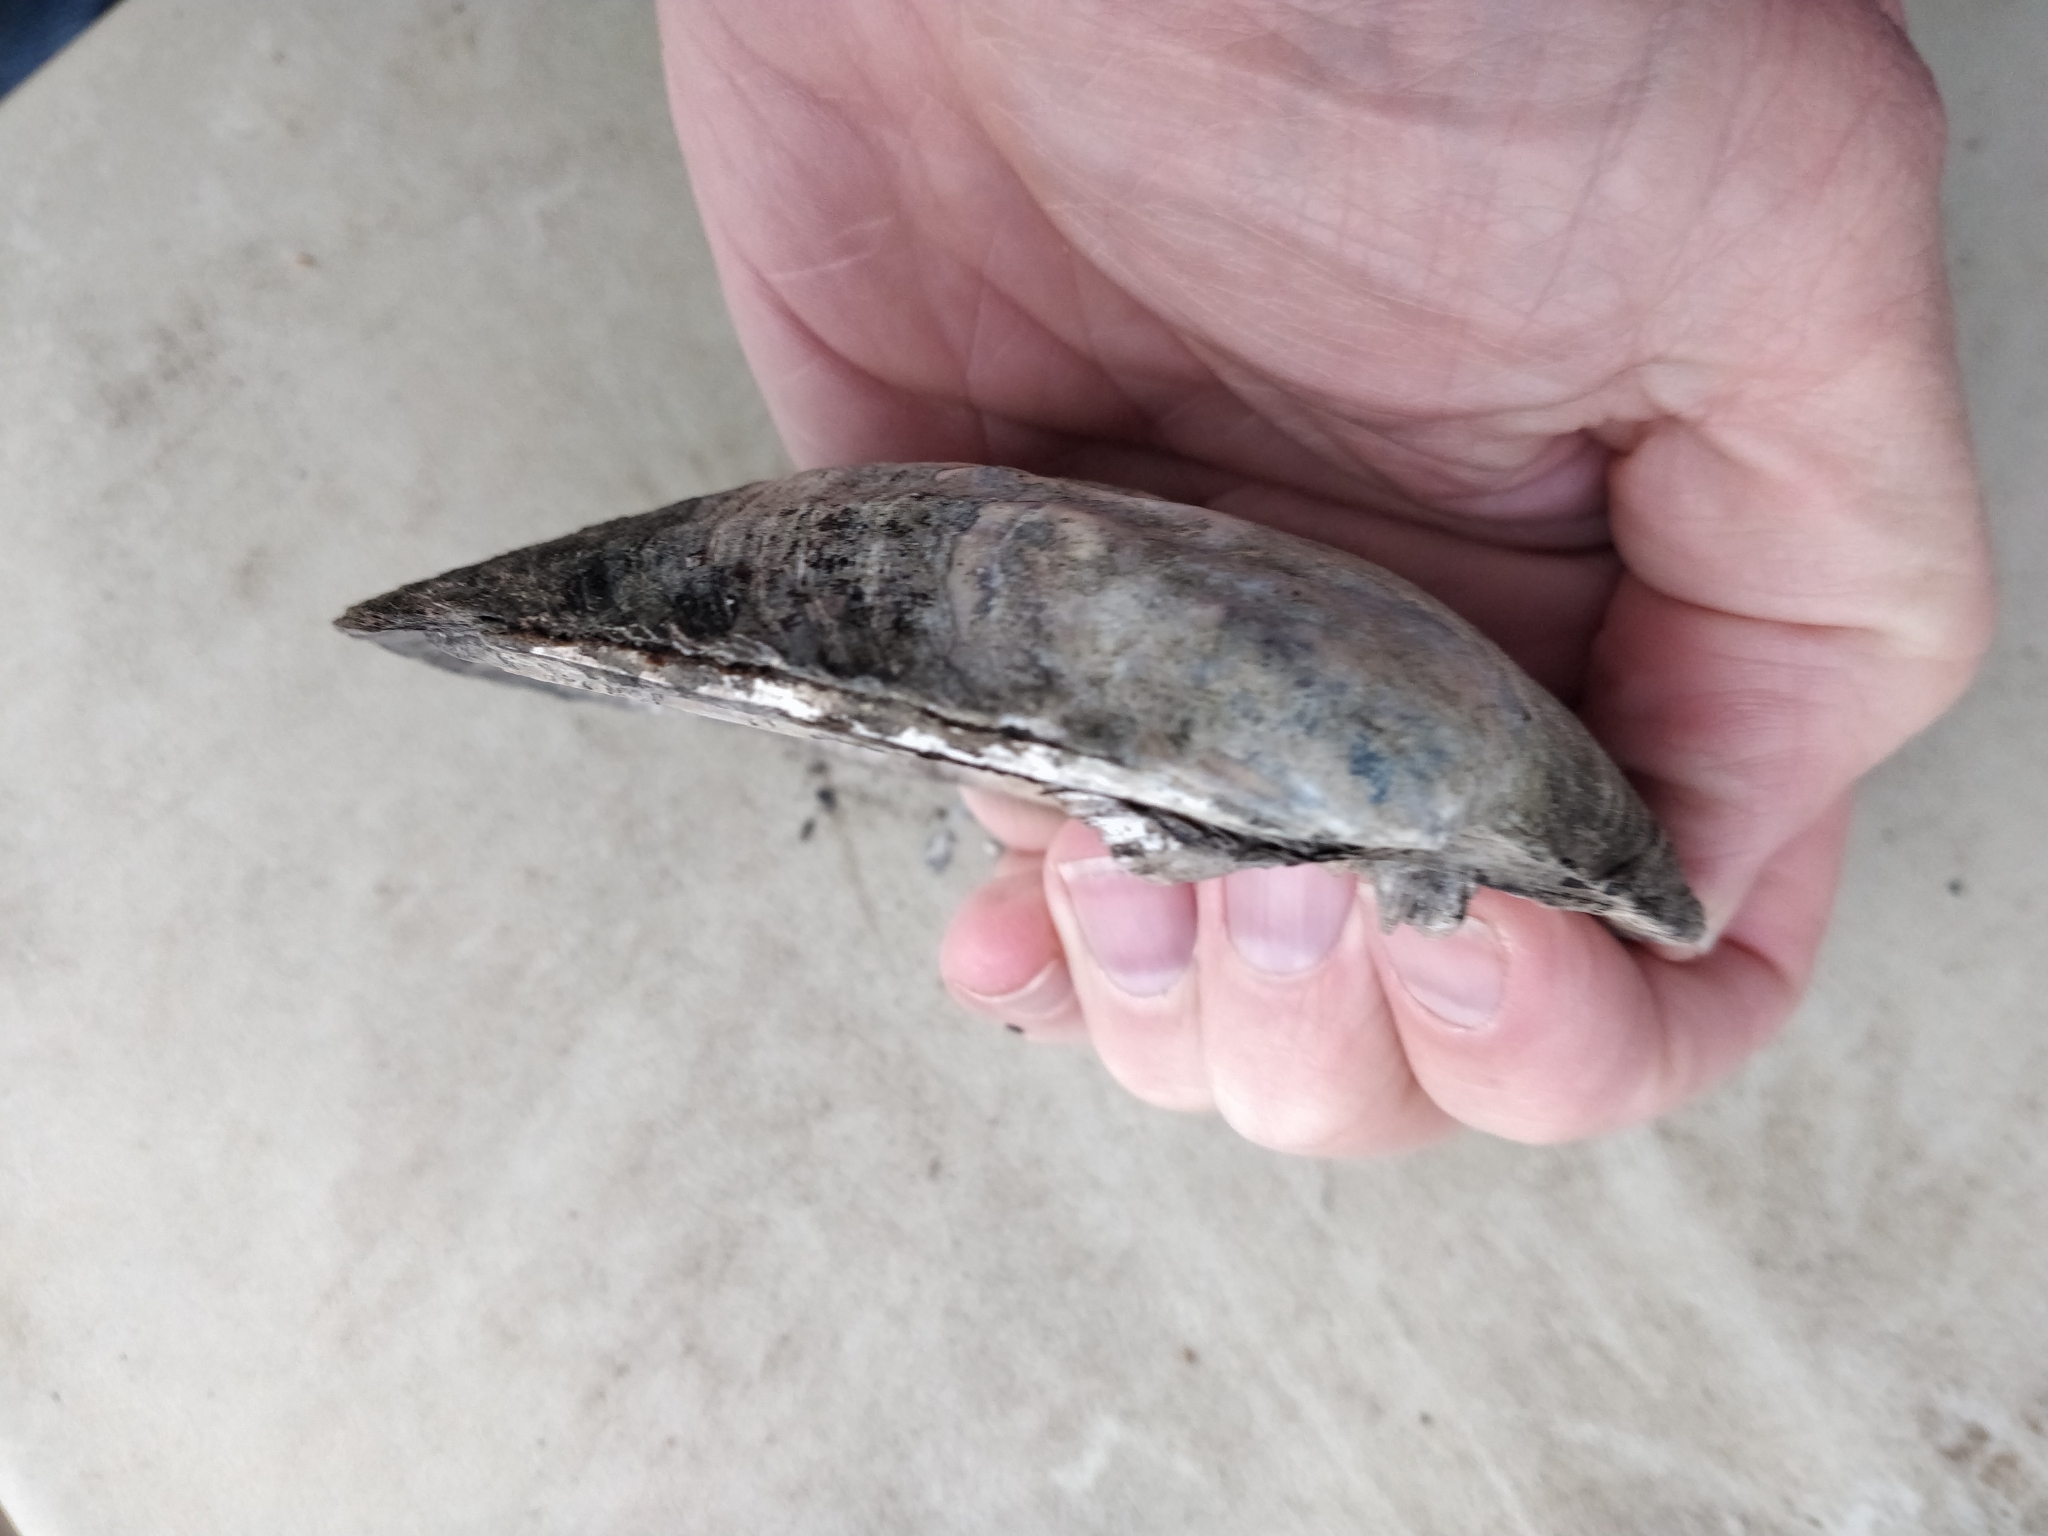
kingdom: Animalia
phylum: Mollusca
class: Bivalvia
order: Unionida
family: Unionidae
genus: Amblema
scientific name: Amblema plicata
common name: Threeridge
